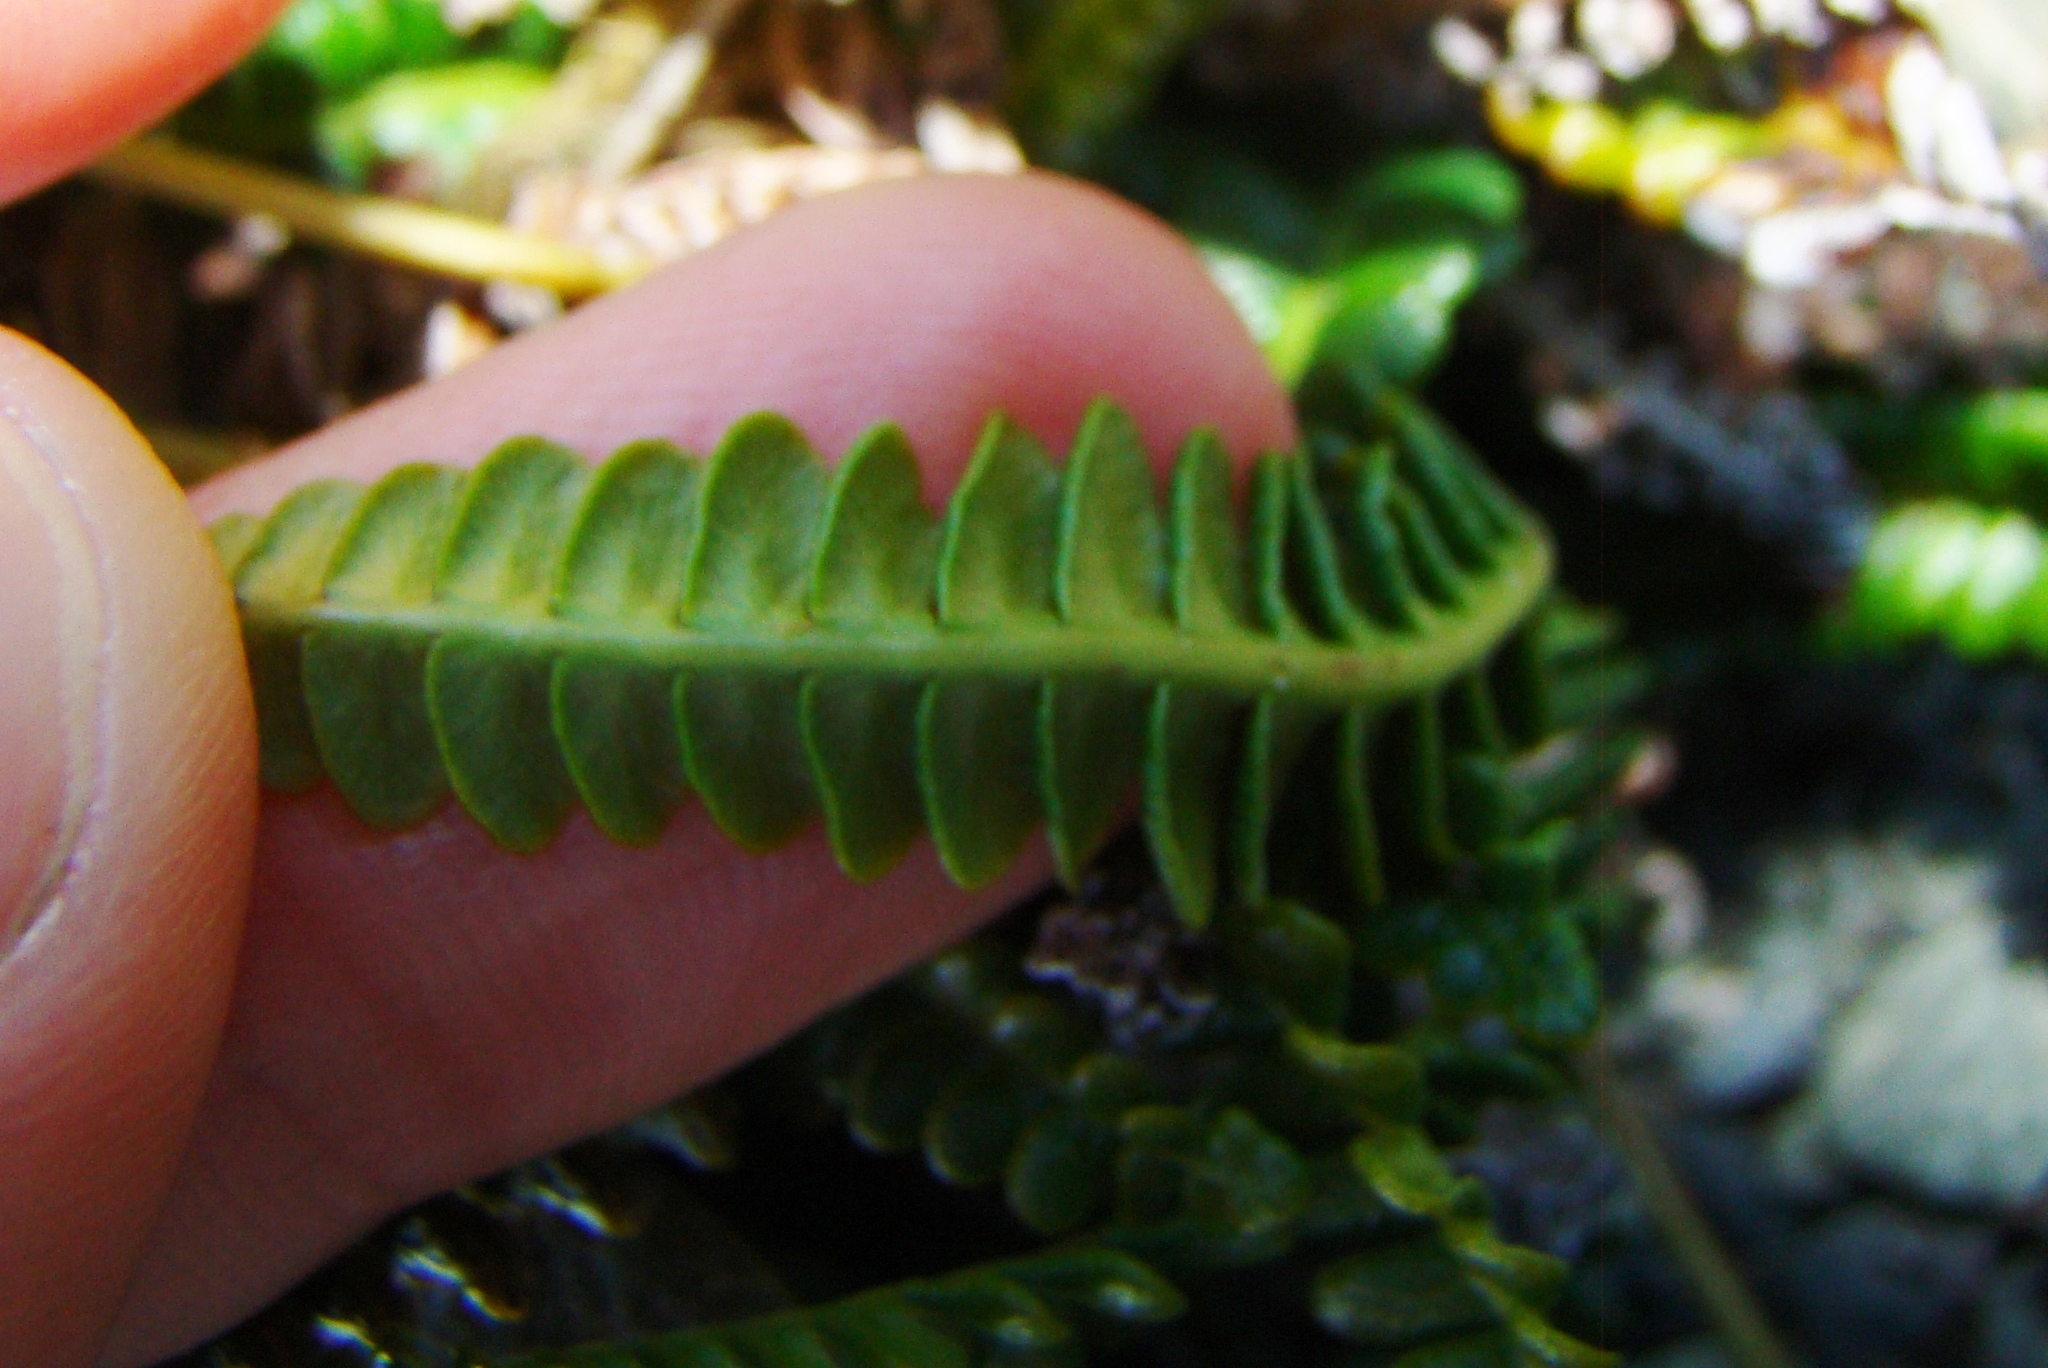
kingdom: Plantae
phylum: Tracheophyta
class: Polypodiopsida
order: Polypodiales
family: Blechnaceae
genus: Austroblechnum
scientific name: Austroblechnum penna-marina
